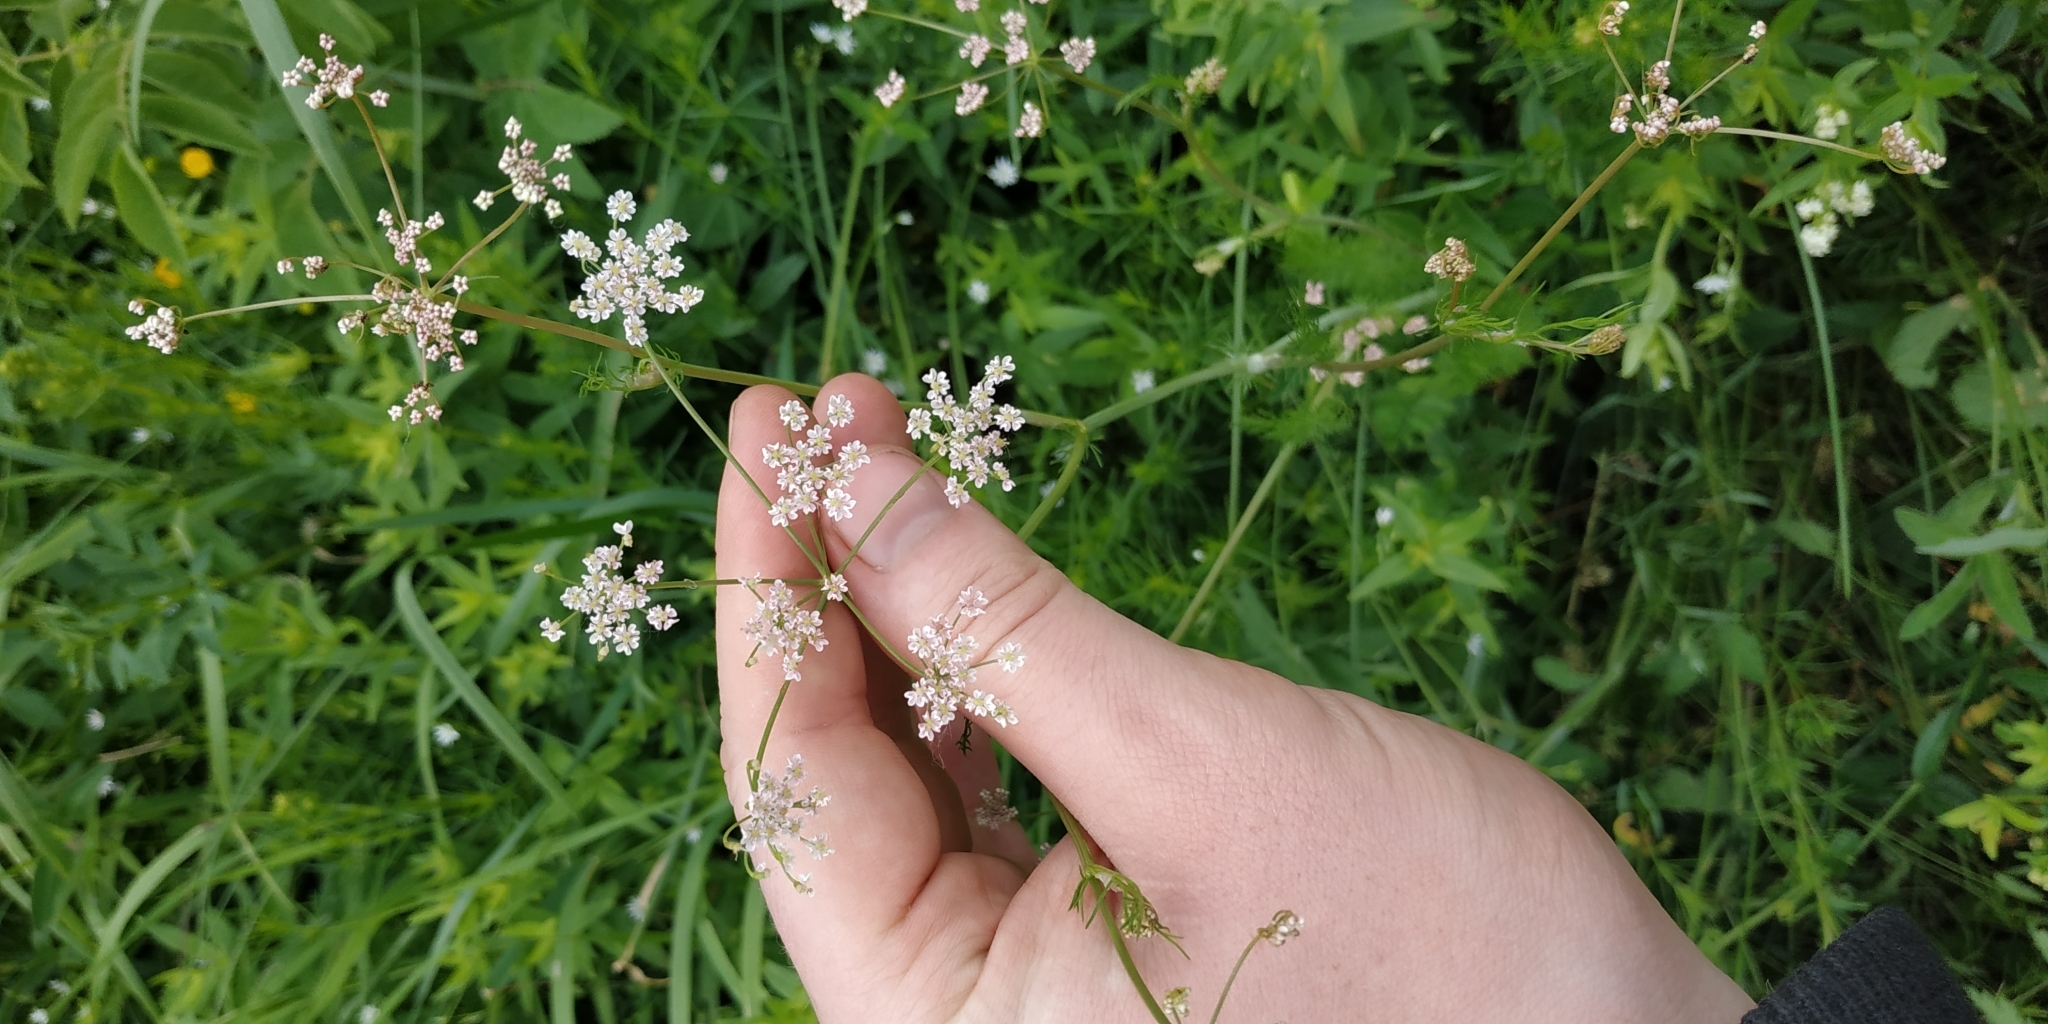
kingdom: Plantae
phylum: Tracheophyta
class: Magnoliopsida
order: Apiales
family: Apiaceae
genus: Carum
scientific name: Carum carvi
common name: Caraway
